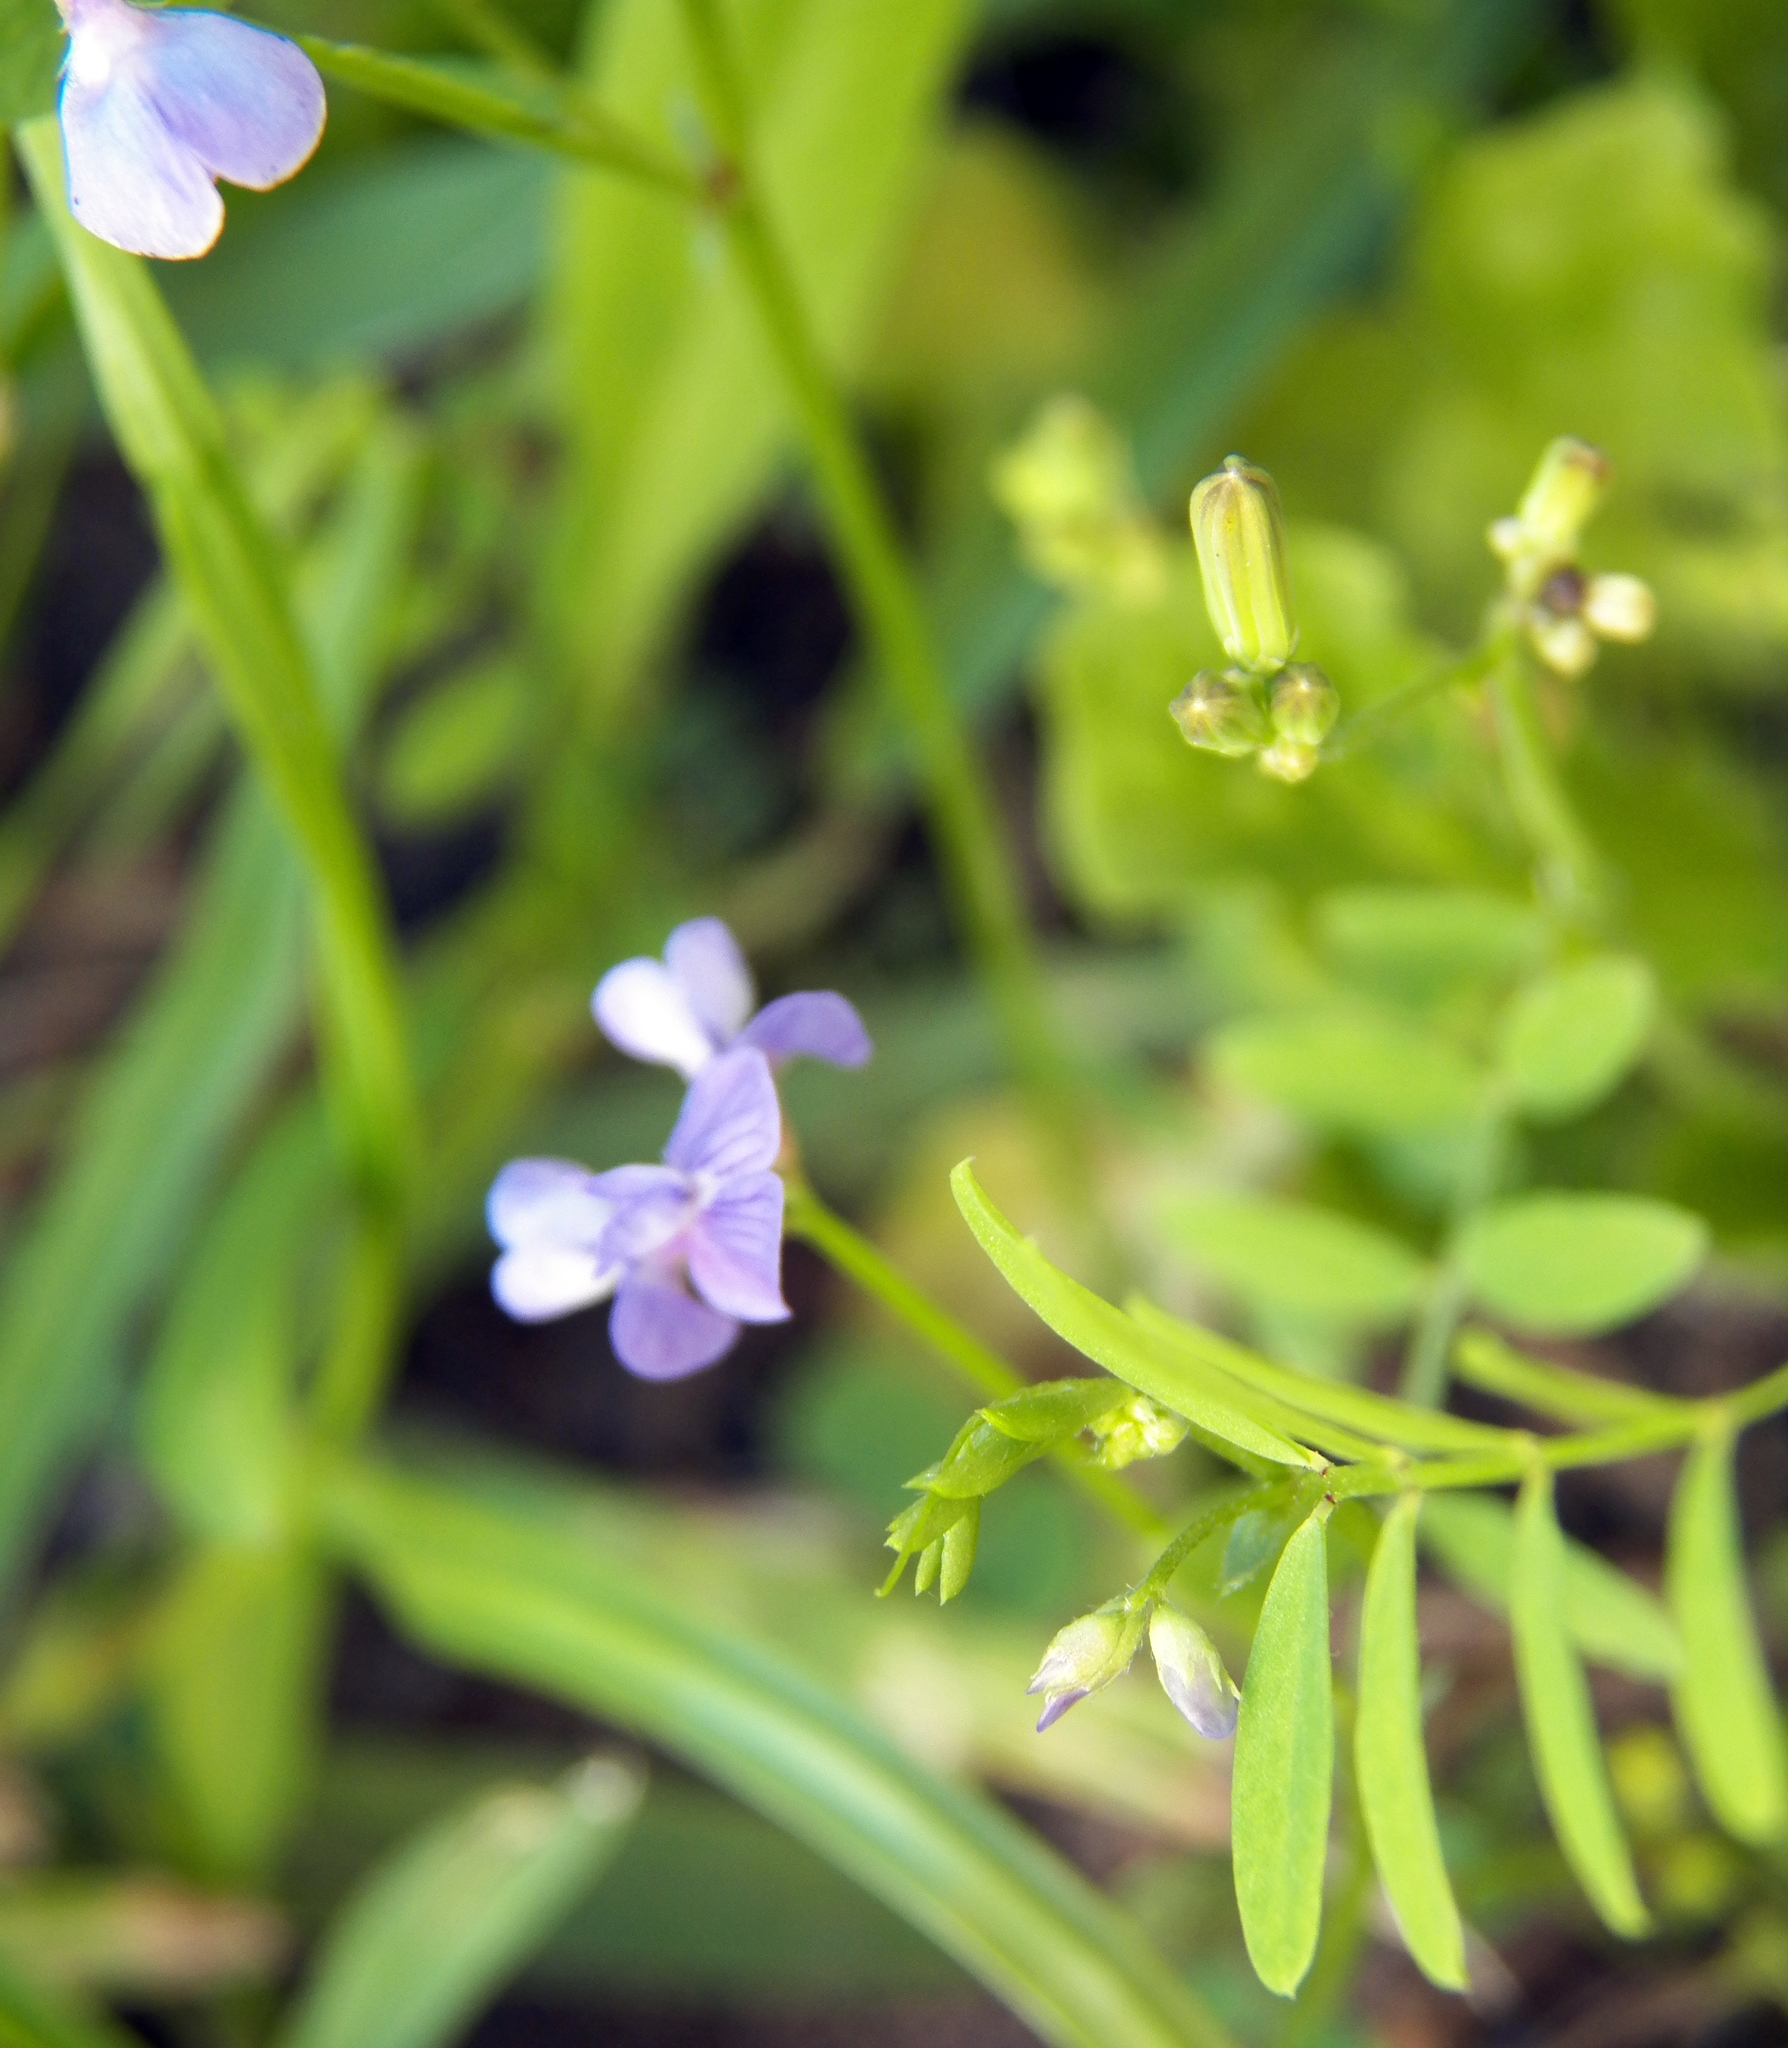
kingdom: Plantae
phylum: Tracheophyta
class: Magnoliopsida
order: Fabales
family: Fabaceae
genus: Vicia
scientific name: Vicia ludoviciana
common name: Louisiana vetch
